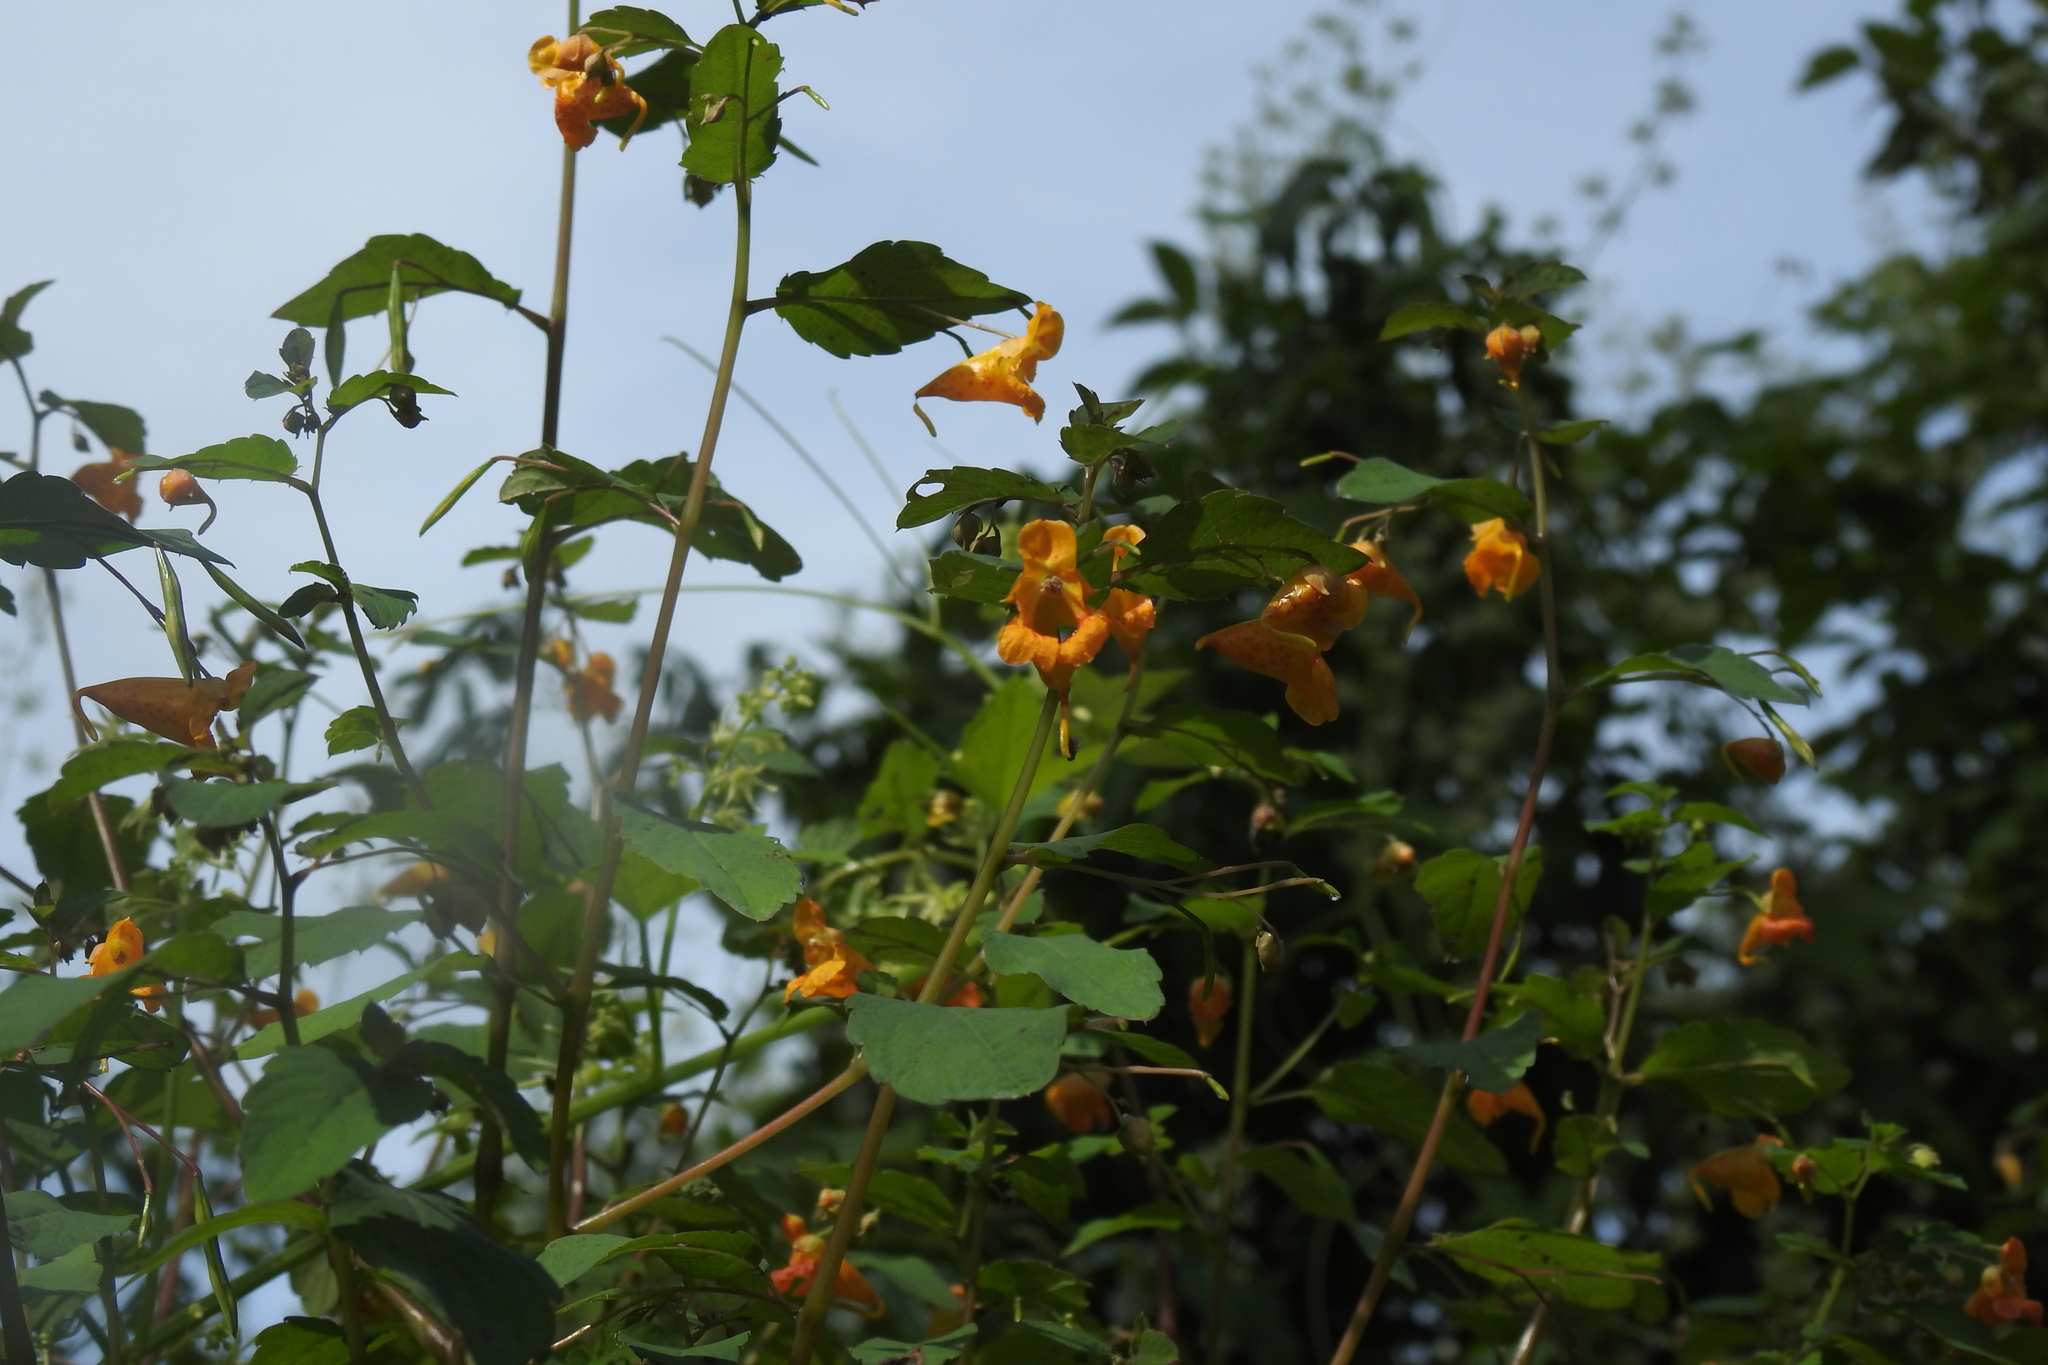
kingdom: Plantae
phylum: Tracheophyta
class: Magnoliopsida
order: Ericales
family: Balsaminaceae
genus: Impatiens
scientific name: Impatiens capensis
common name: Orange balsam
